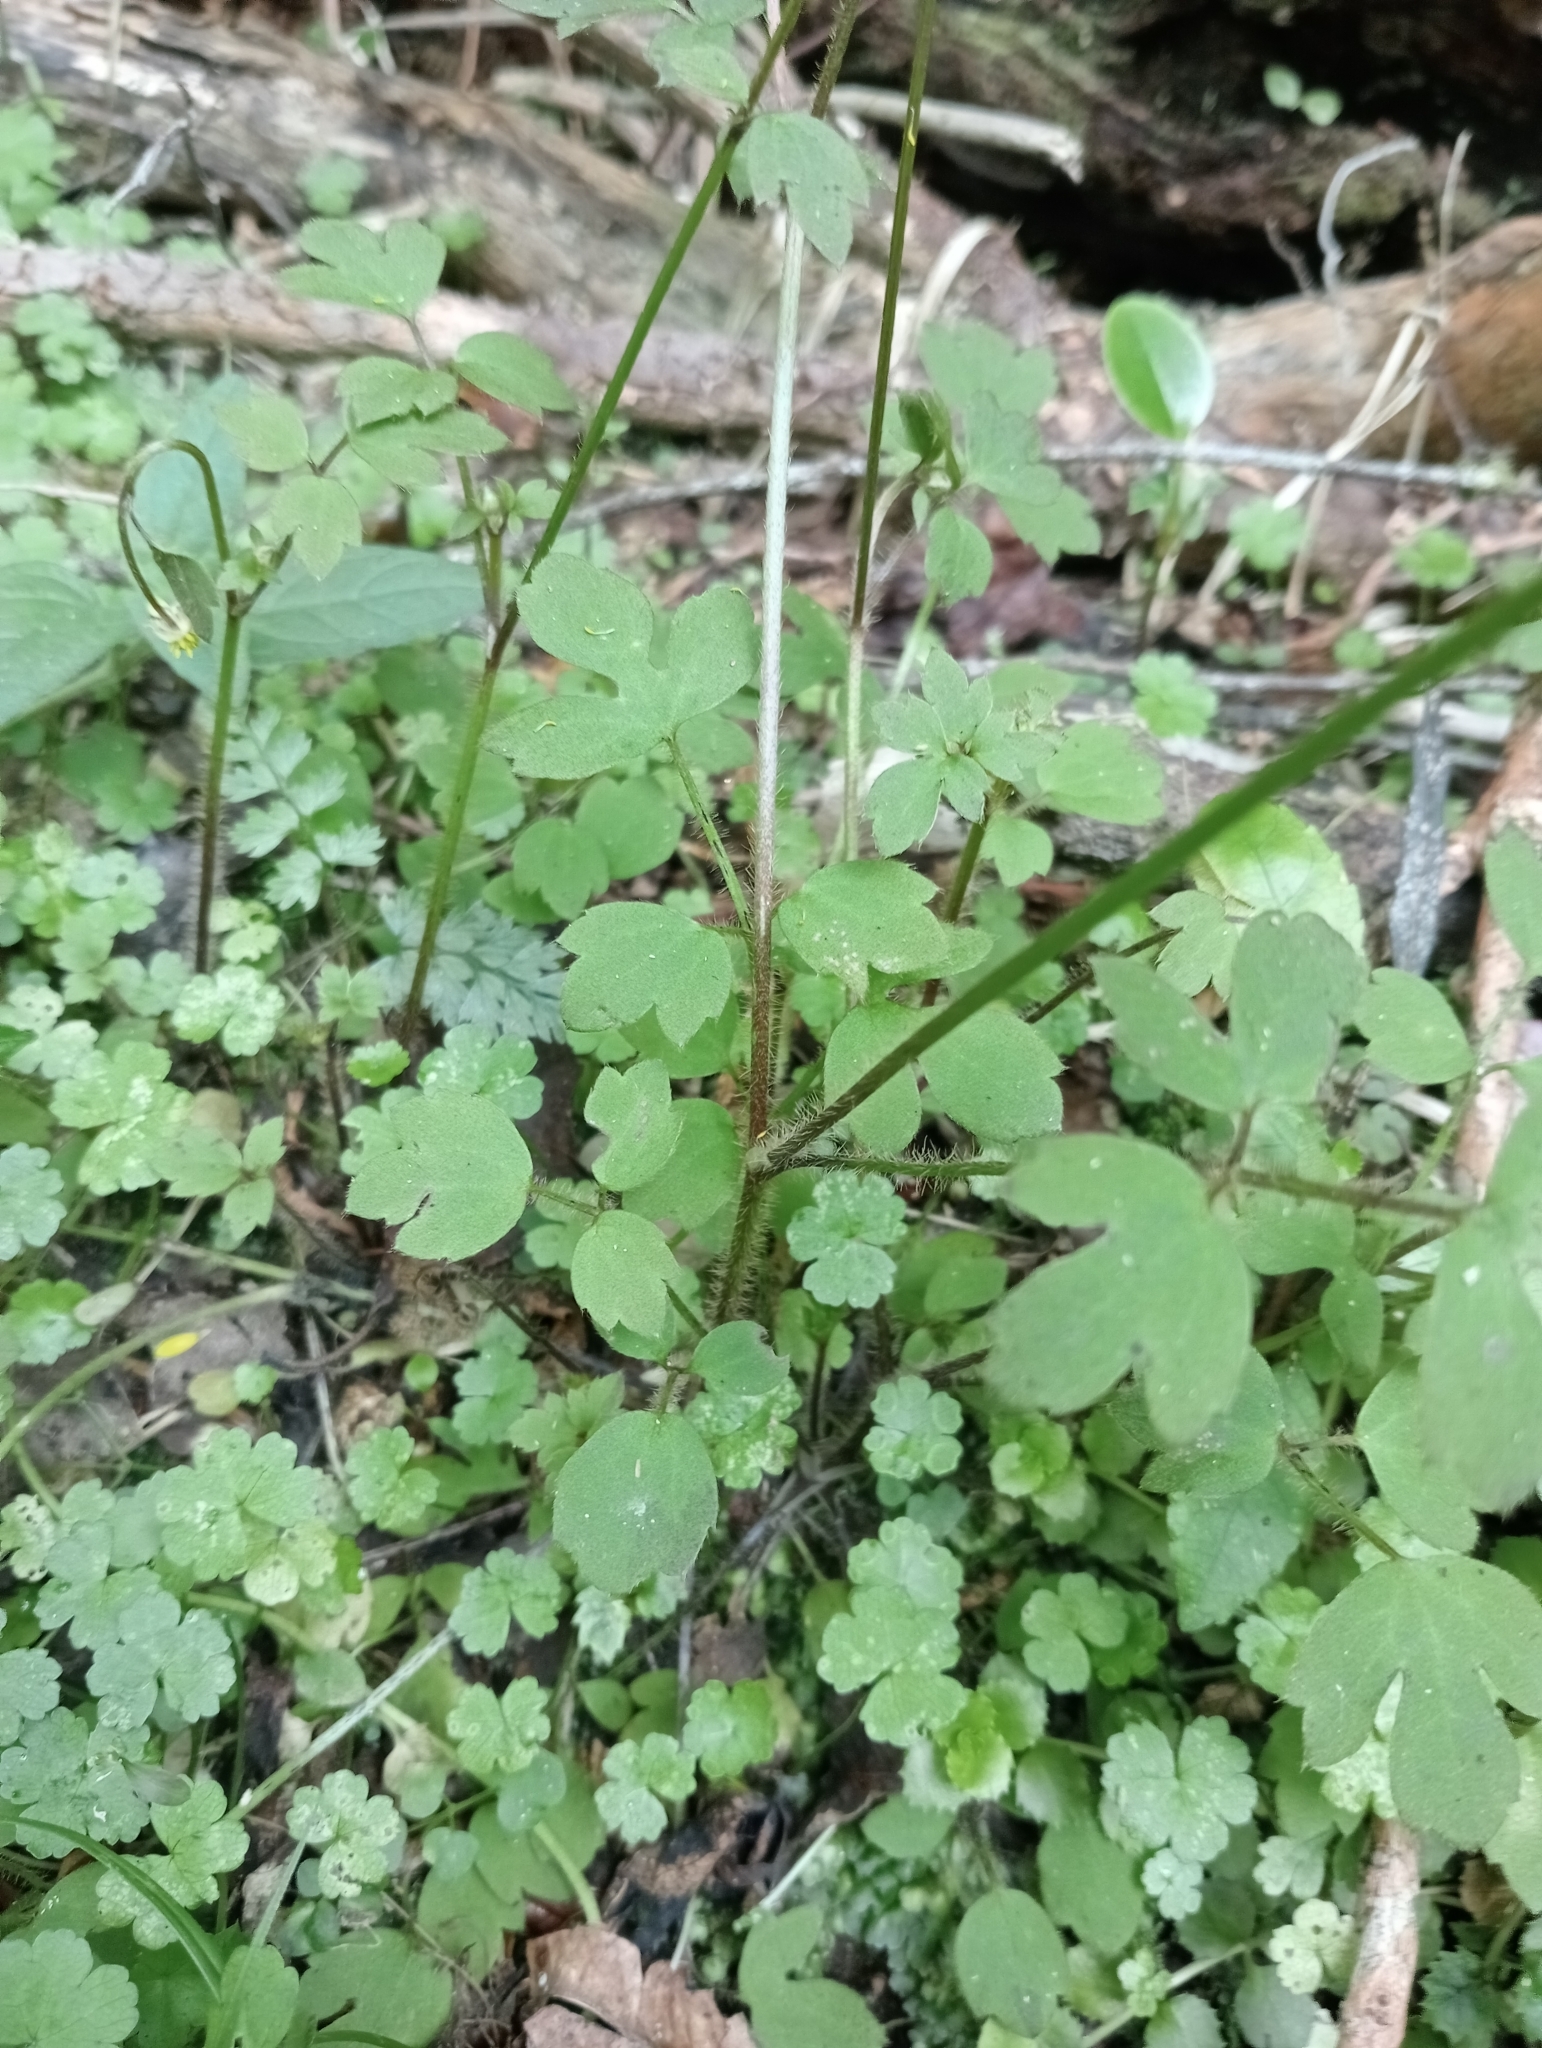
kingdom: Plantae
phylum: Tracheophyta
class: Magnoliopsida
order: Ranunculales
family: Ranunculaceae
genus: Ranunculus
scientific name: Ranunculus reflexus
